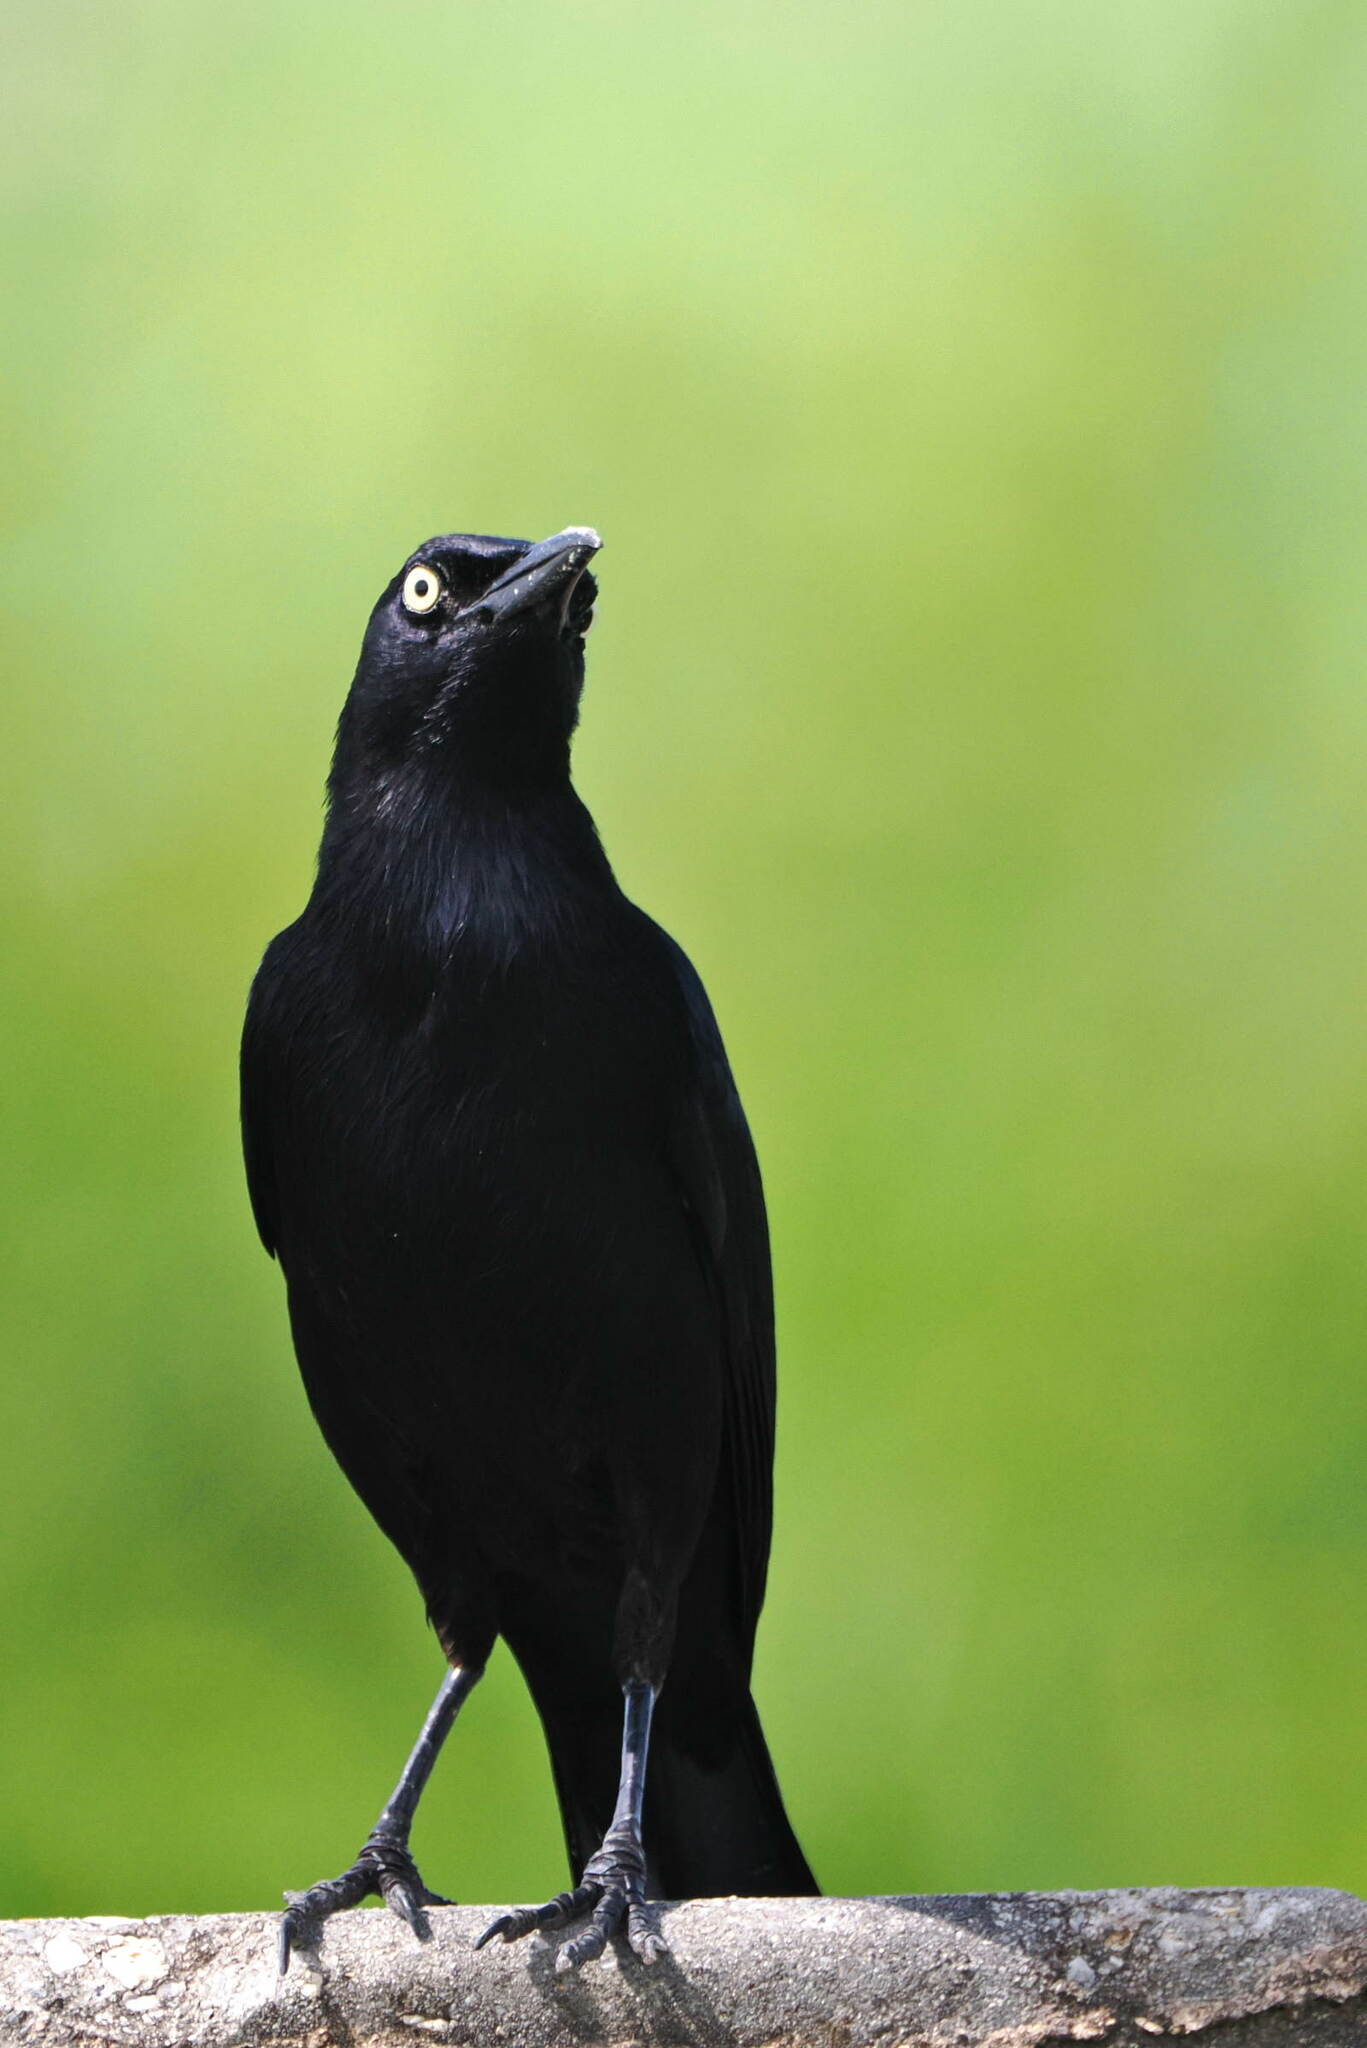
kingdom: Animalia
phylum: Chordata
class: Aves
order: Passeriformes
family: Icteridae
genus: Quiscalus
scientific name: Quiscalus lugubris
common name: Carib grackle
